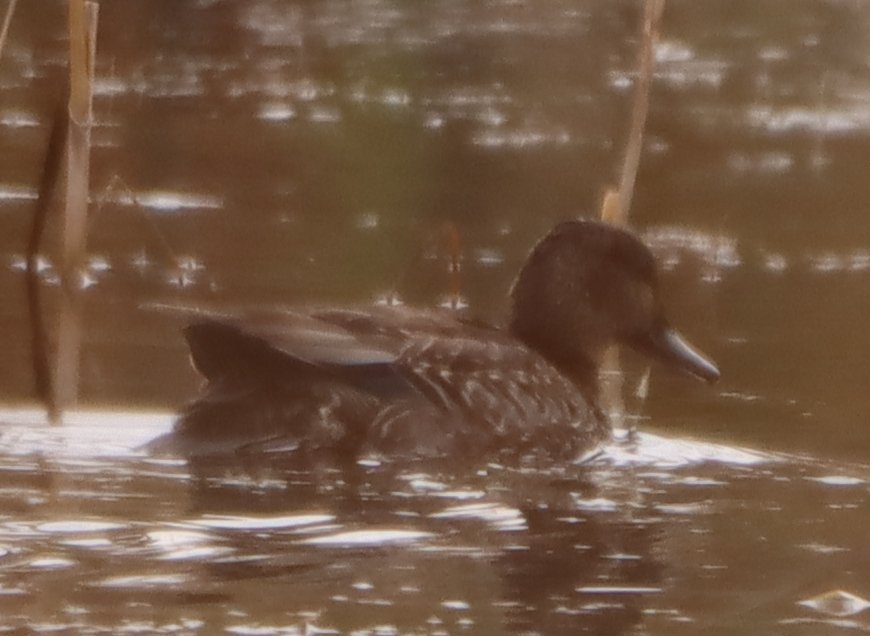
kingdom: Animalia
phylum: Chordata
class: Aves
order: Anseriformes
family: Anatidae
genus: Anas
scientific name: Anas crecca
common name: Eurasian teal
